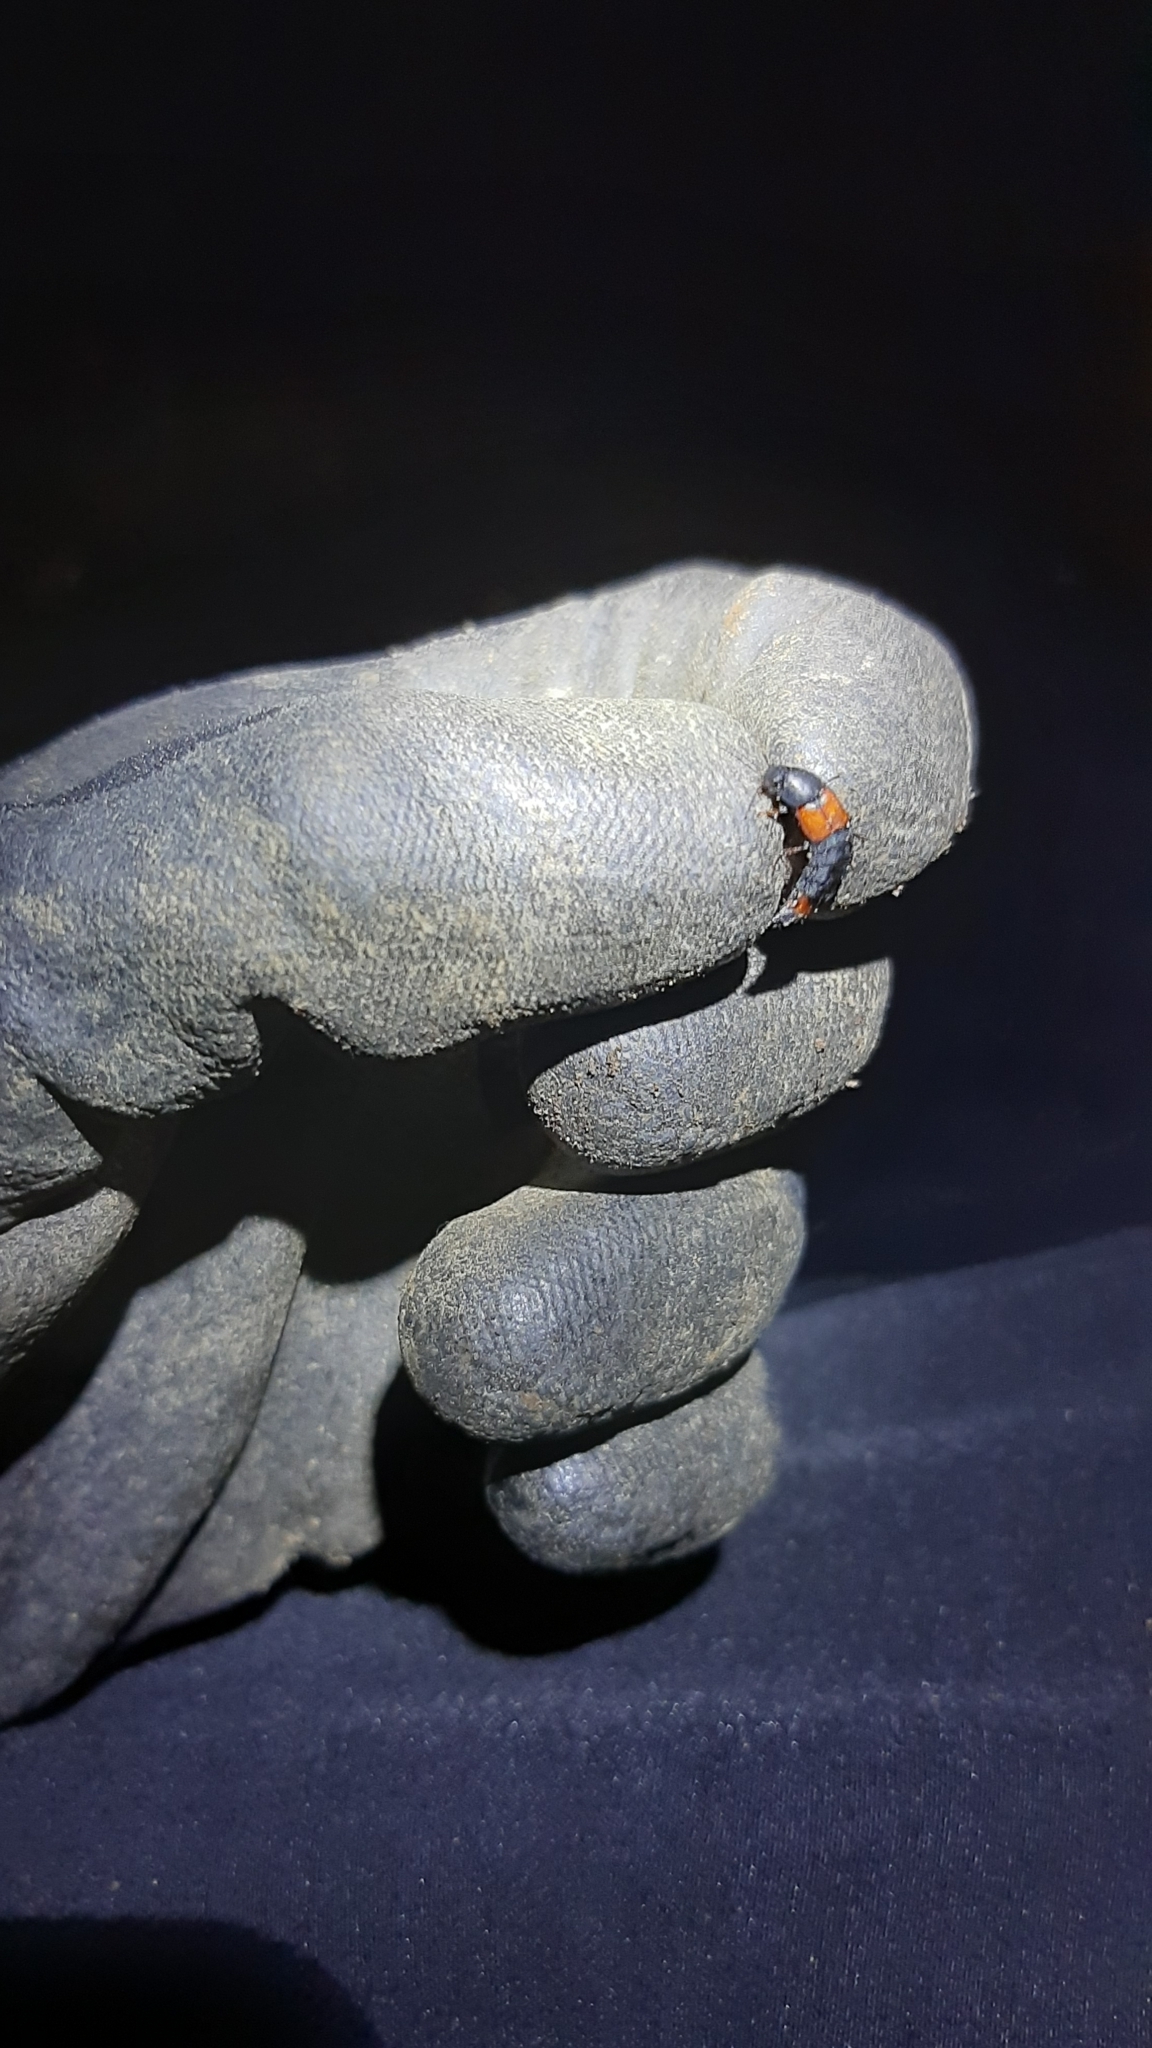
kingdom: Animalia
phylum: Arthropoda
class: Insecta
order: Coleoptera
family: Staphylinidae
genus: Astrapaeus
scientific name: Astrapaeus ulmi
